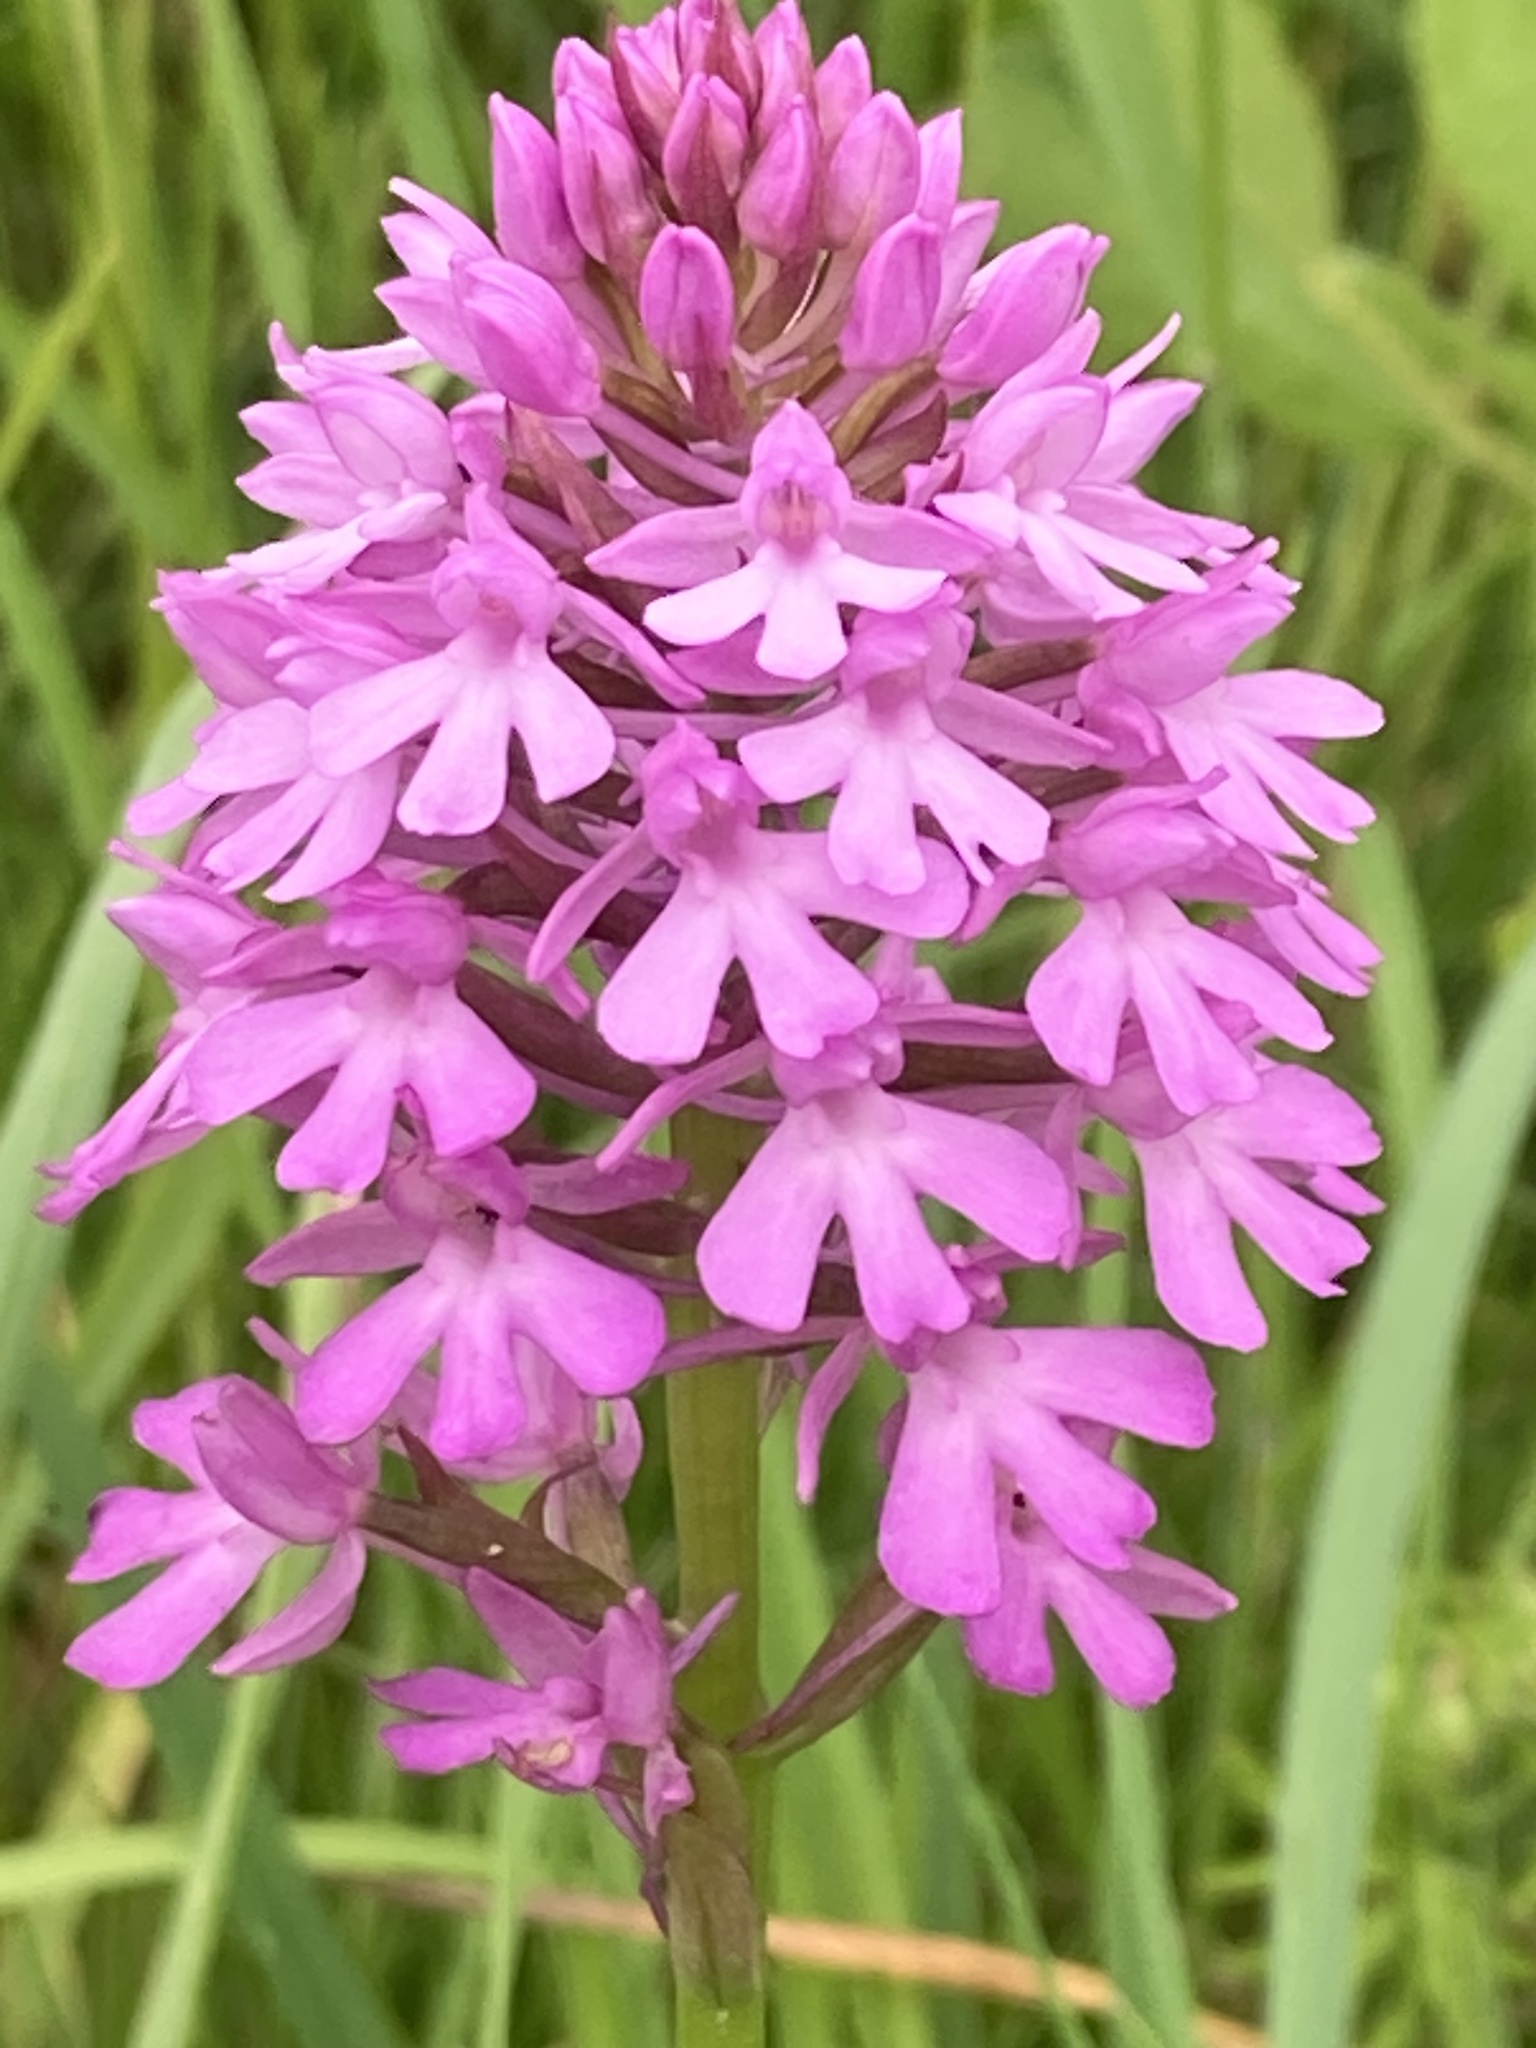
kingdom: Plantae
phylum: Tracheophyta
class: Liliopsida
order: Asparagales
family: Orchidaceae
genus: Anacamptis
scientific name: Anacamptis pyramidalis
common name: Pyramidal orchid
